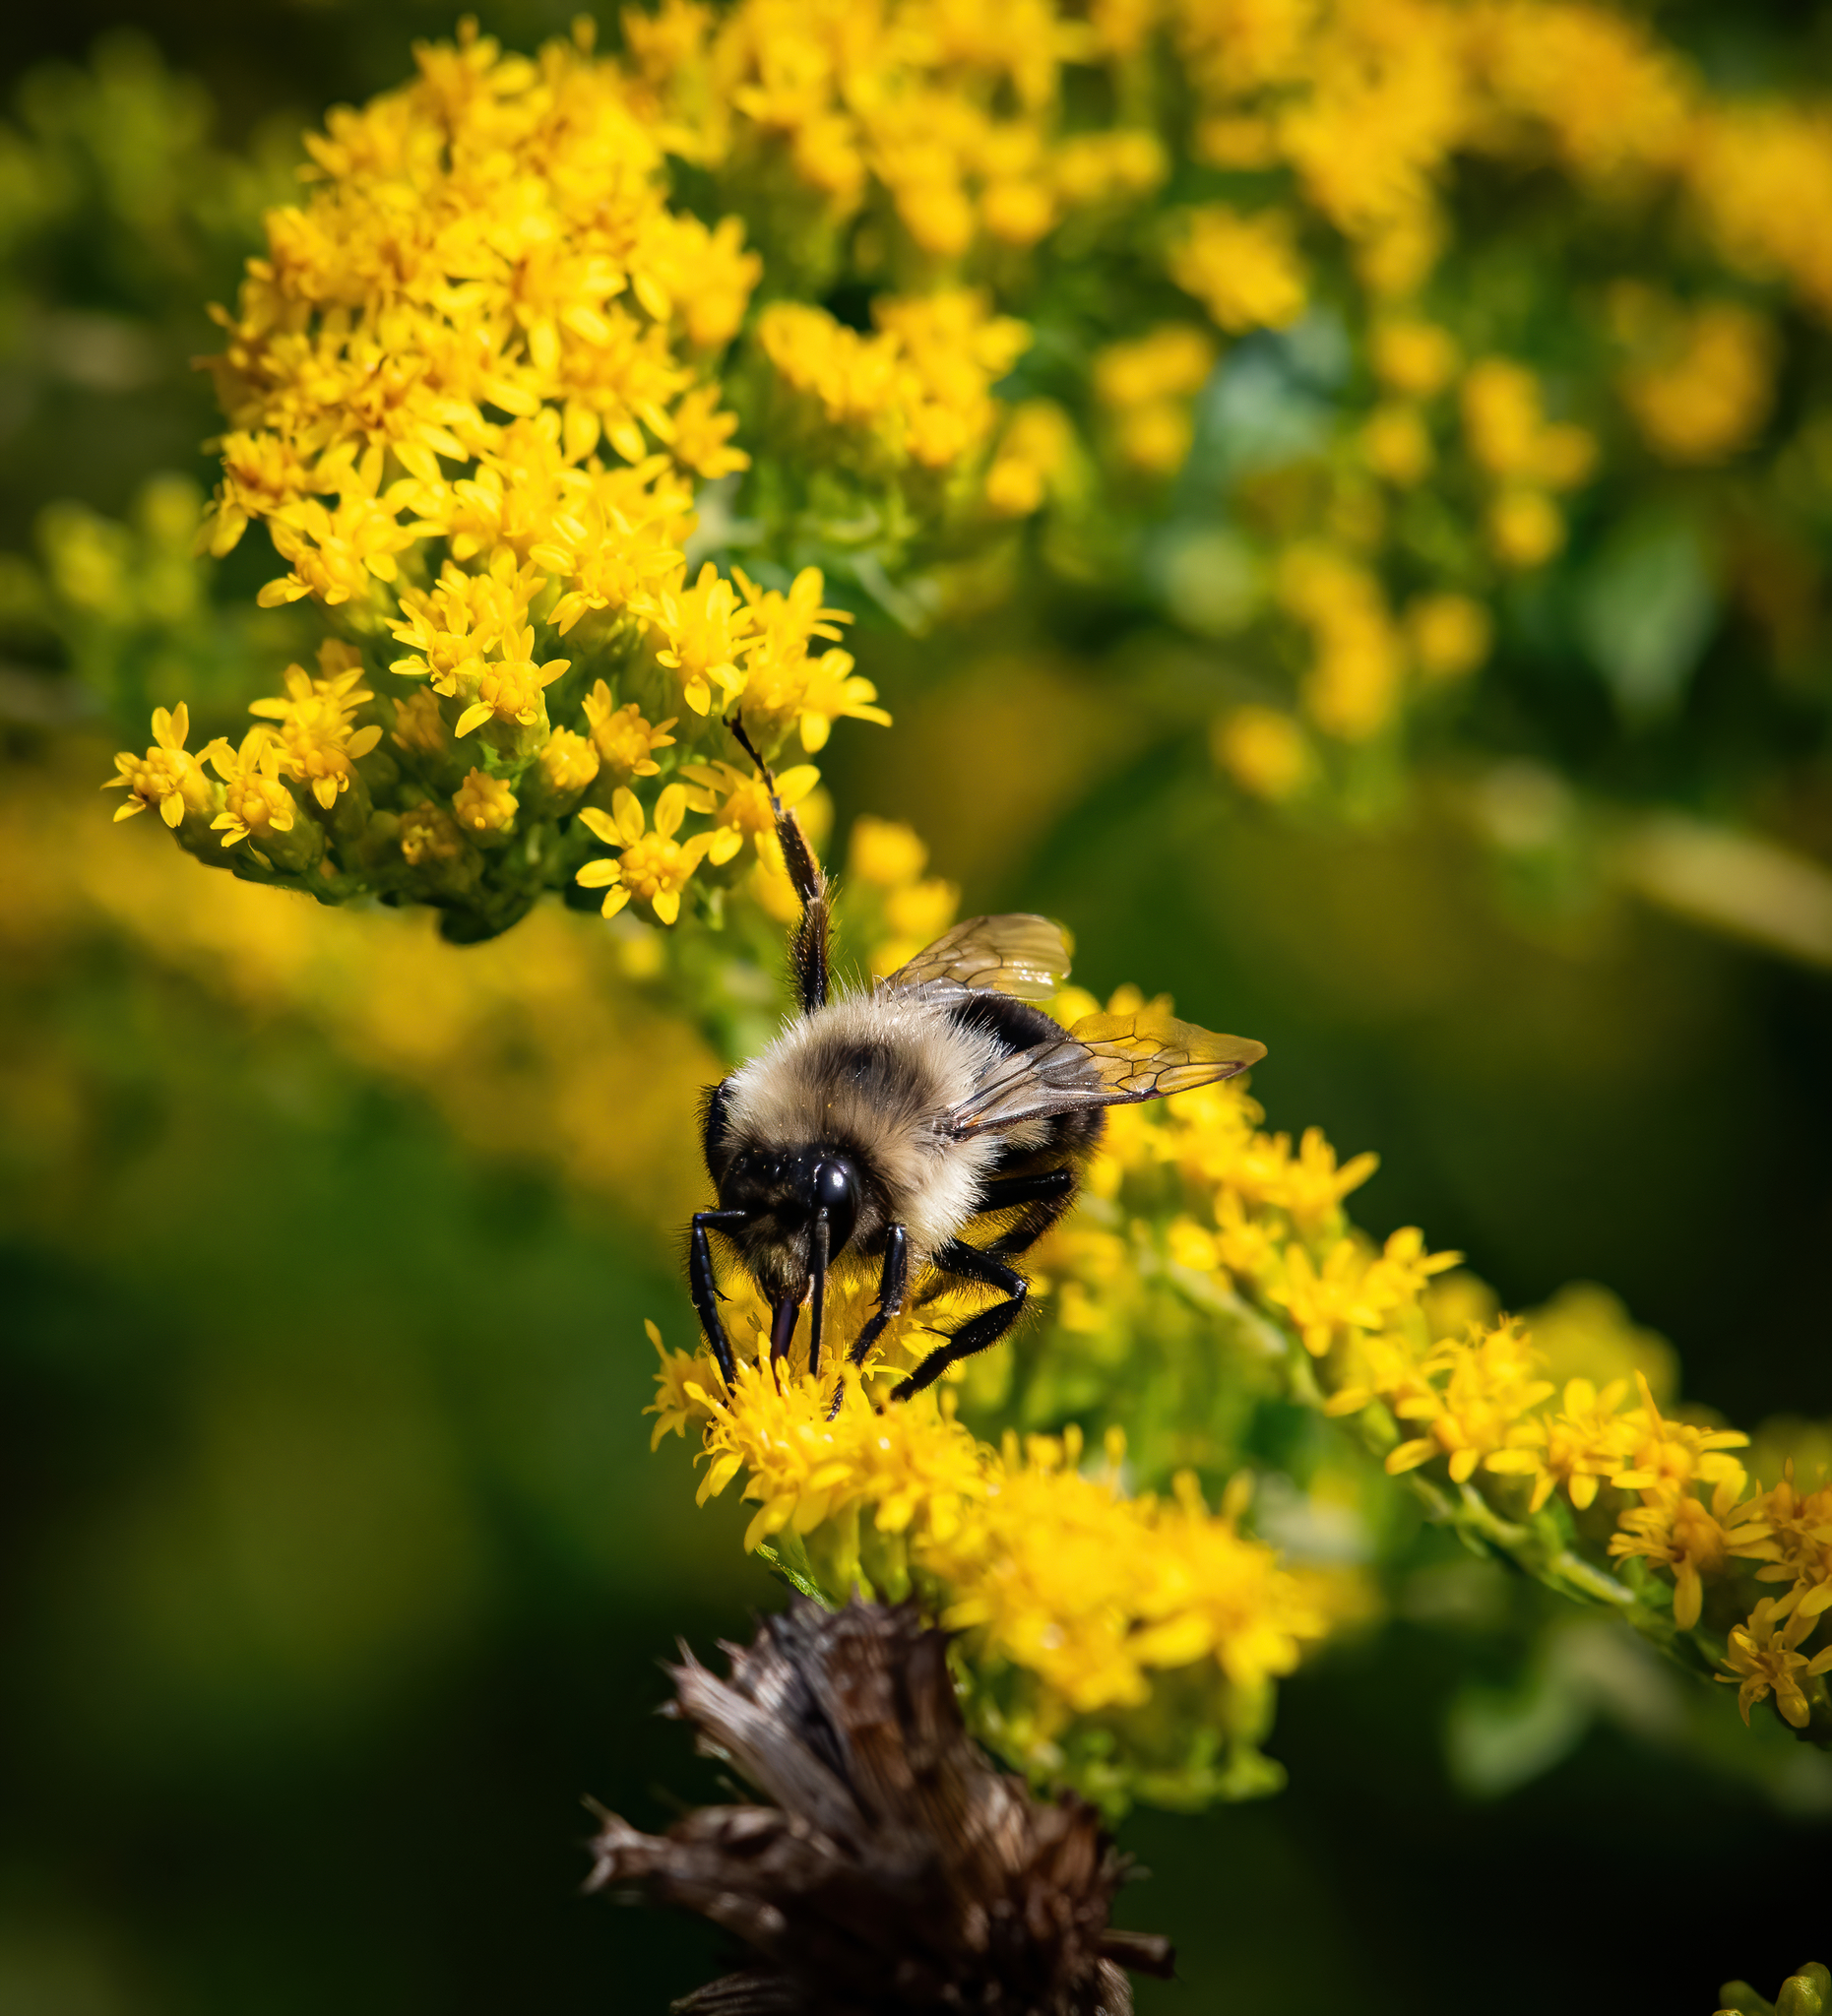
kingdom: Animalia
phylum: Arthropoda
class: Insecta
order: Hymenoptera
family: Apidae
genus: Bombus
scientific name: Bombus impatiens
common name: Common eastern bumble bee
